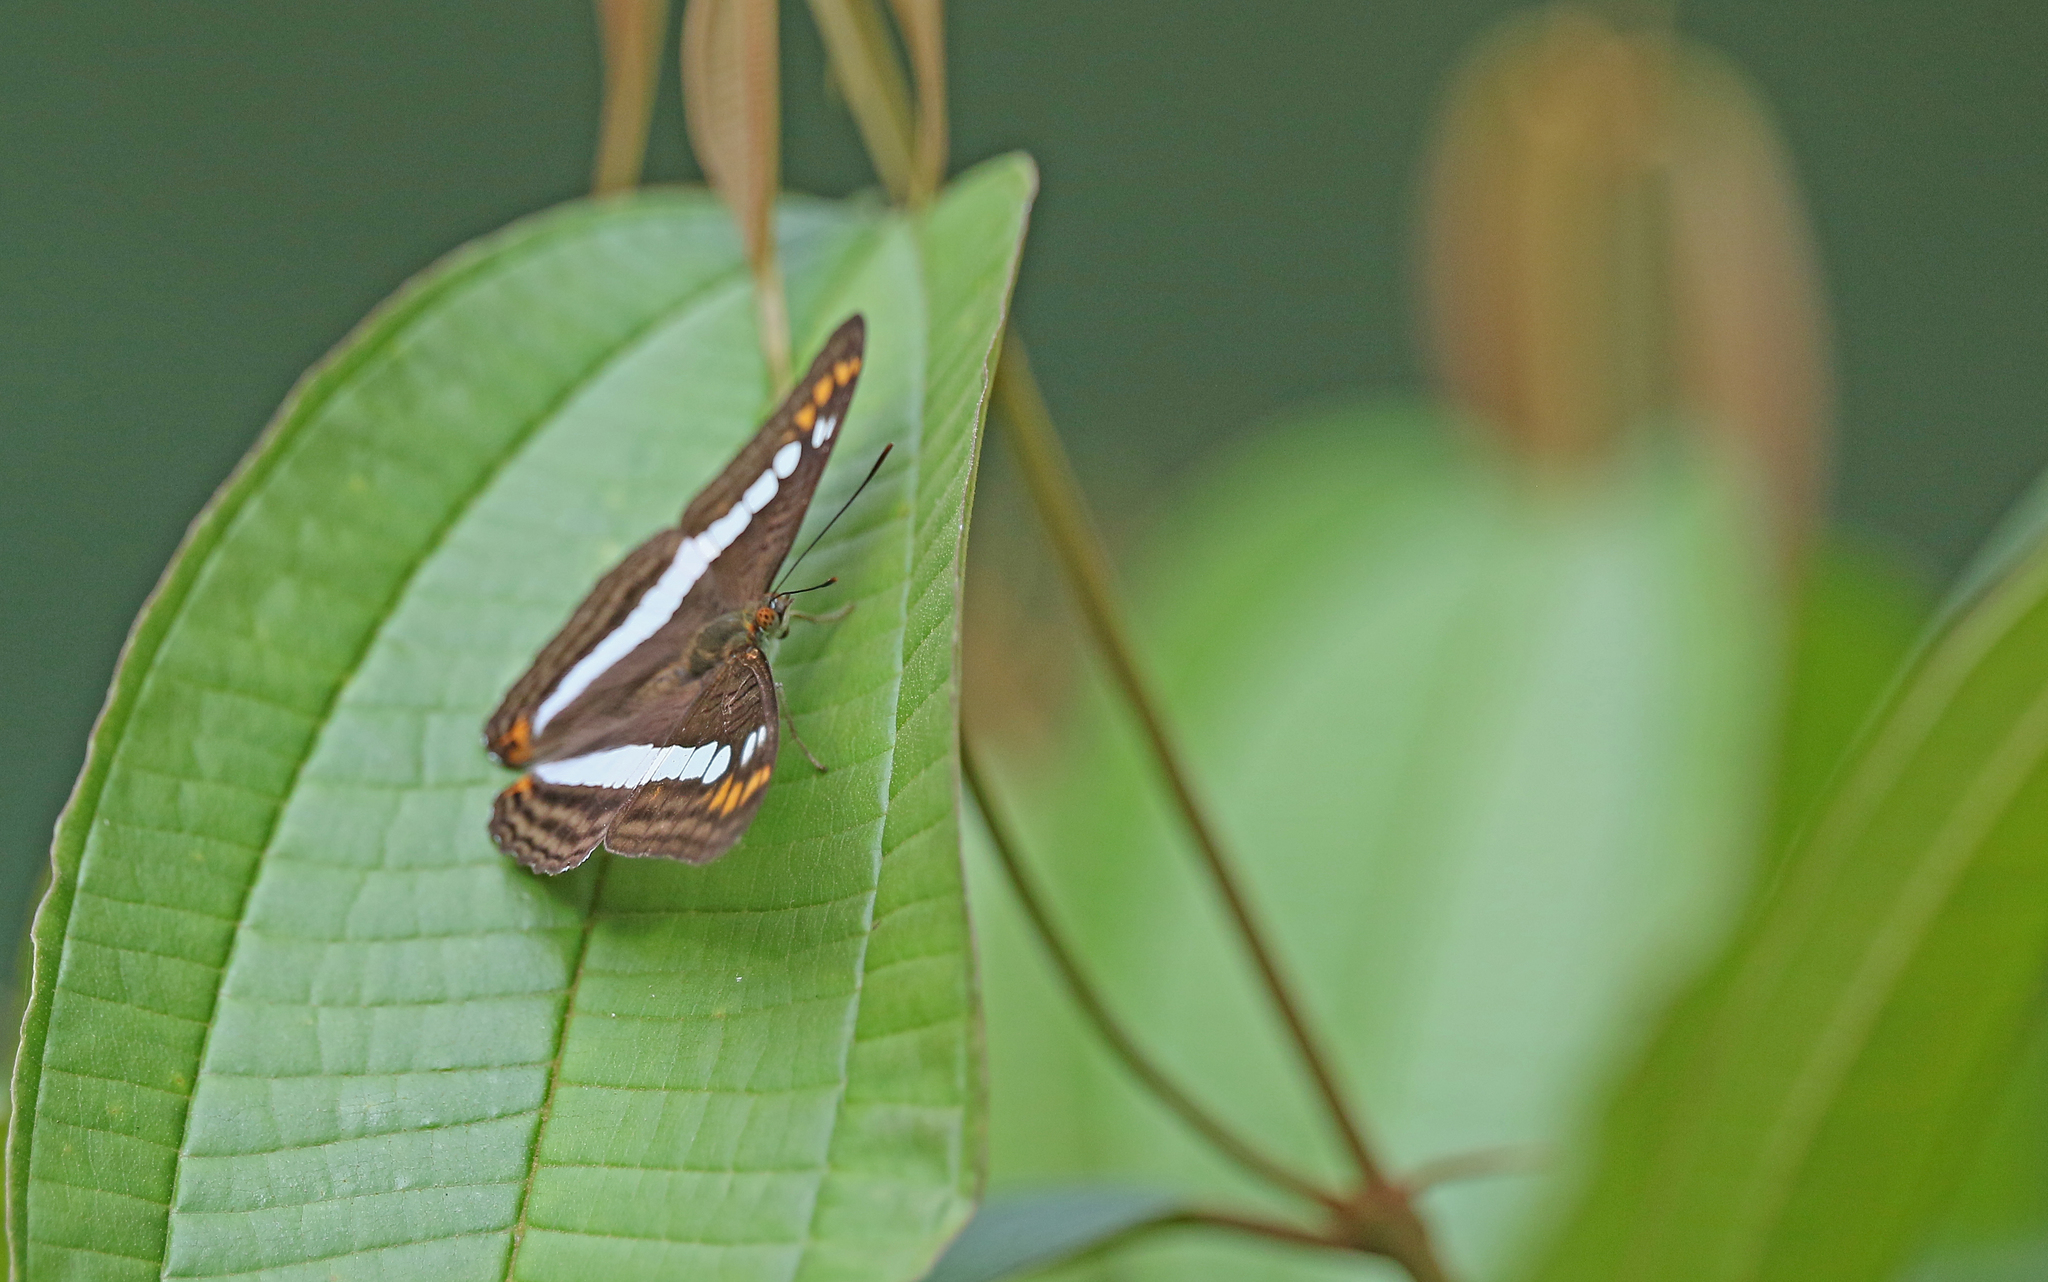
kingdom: Animalia
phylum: Arthropoda
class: Insecta
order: Lepidoptera
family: Nymphalidae
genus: Limenitis
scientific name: Limenitis alala
